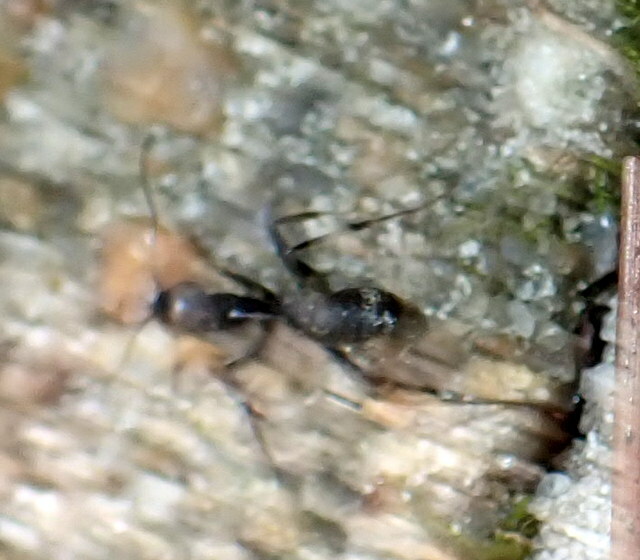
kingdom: Animalia
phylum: Arthropoda
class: Insecta
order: Hymenoptera
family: Formicidae
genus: Camponotus
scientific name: Camponotus pennsylvanicus
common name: Black carpenter ant
